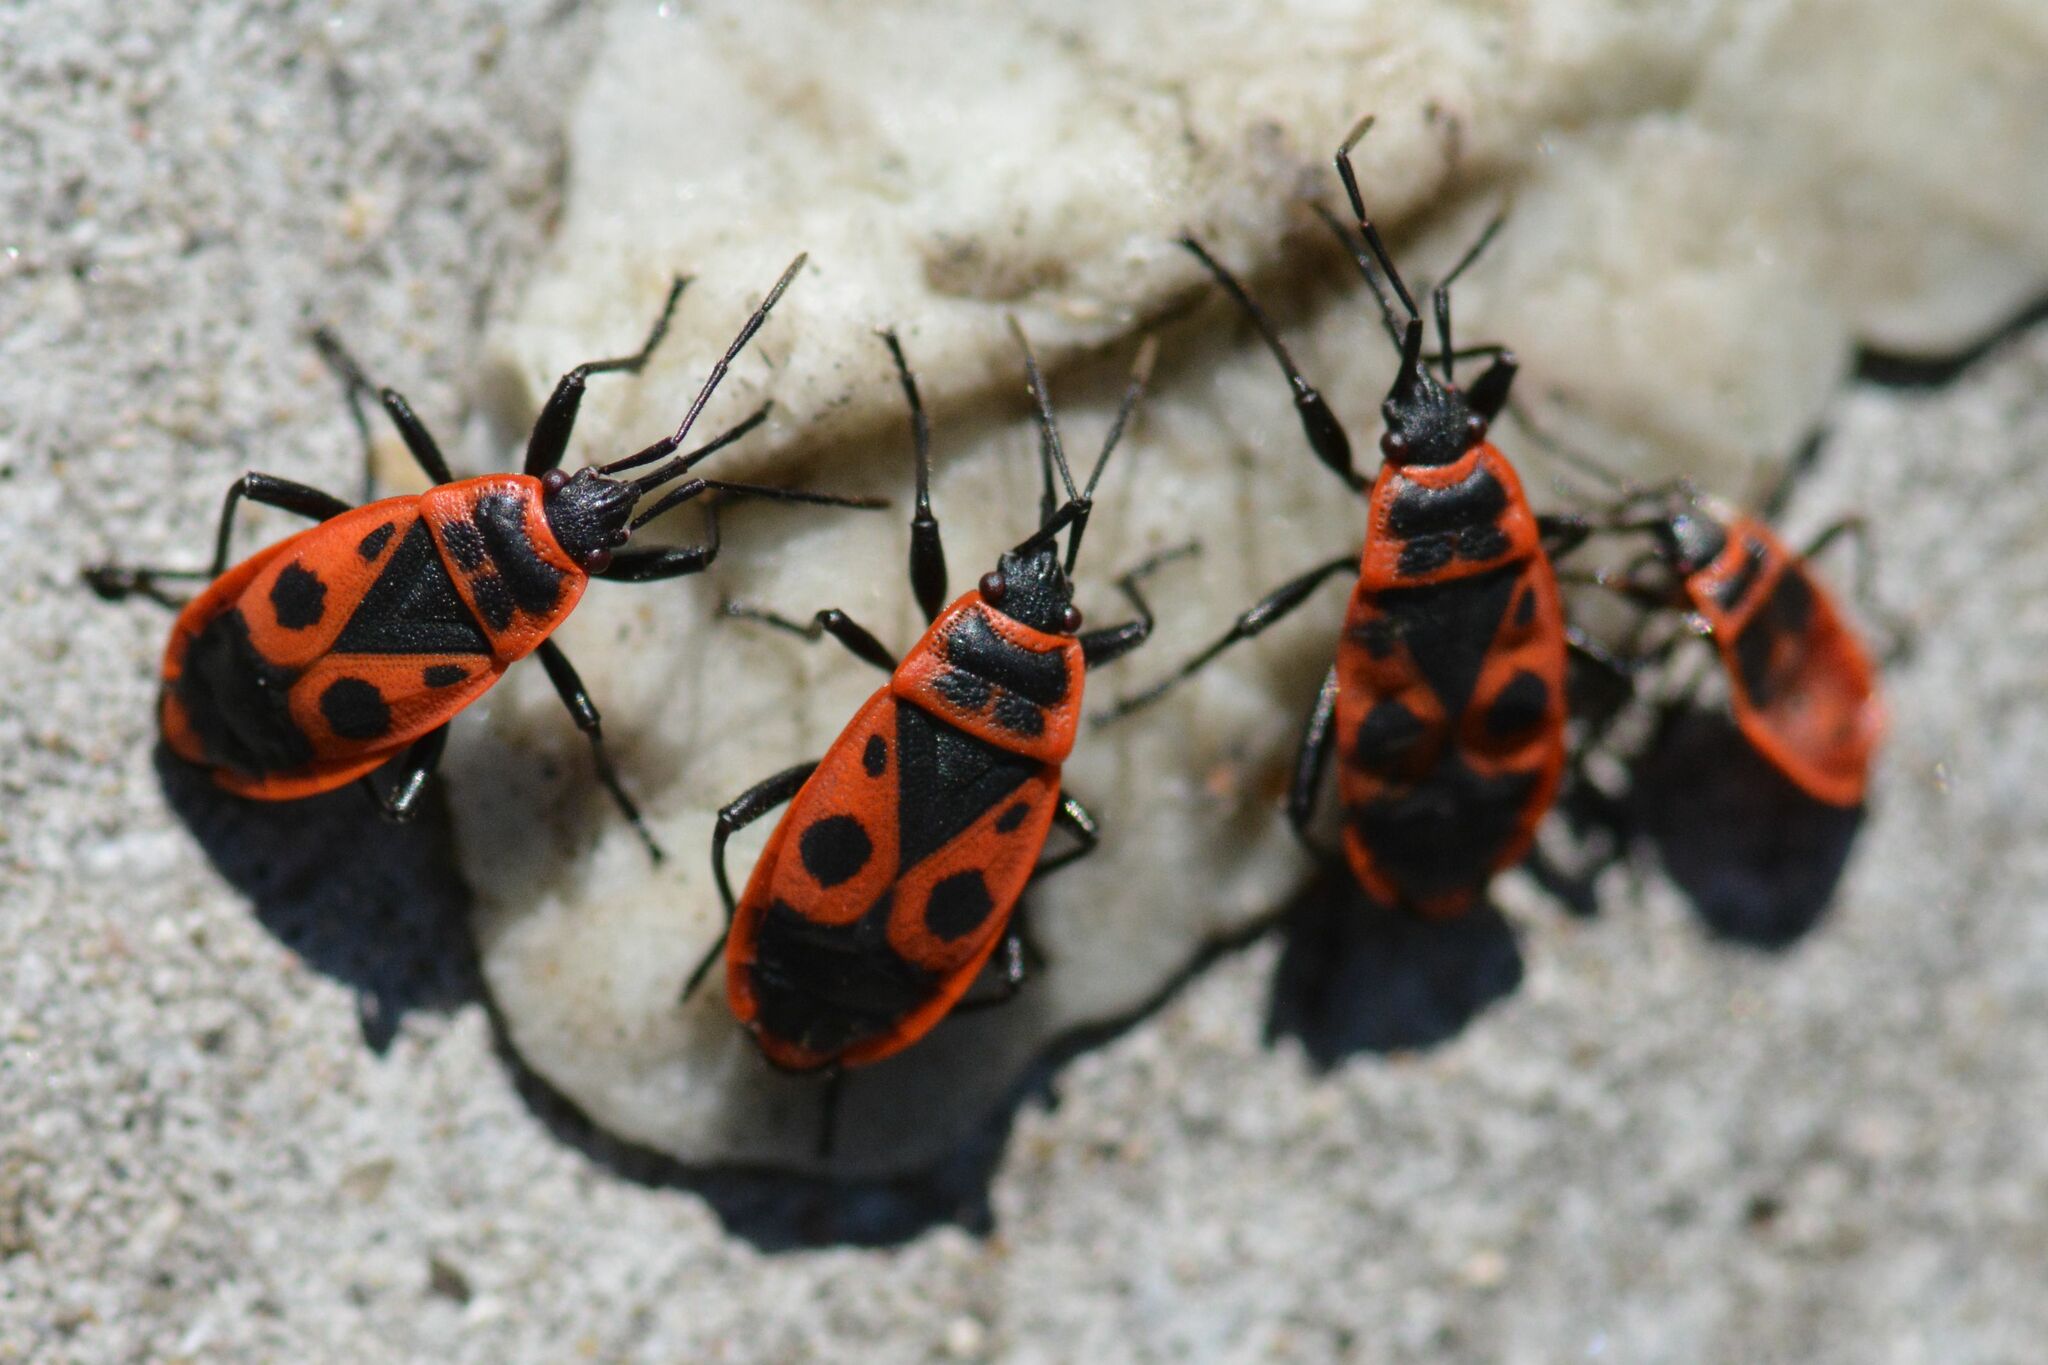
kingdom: Animalia
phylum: Arthropoda
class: Insecta
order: Hemiptera
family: Pyrrhocoridae
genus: Pyrrhocoris
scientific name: Pyrrhocoris apterus
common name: Firebug
